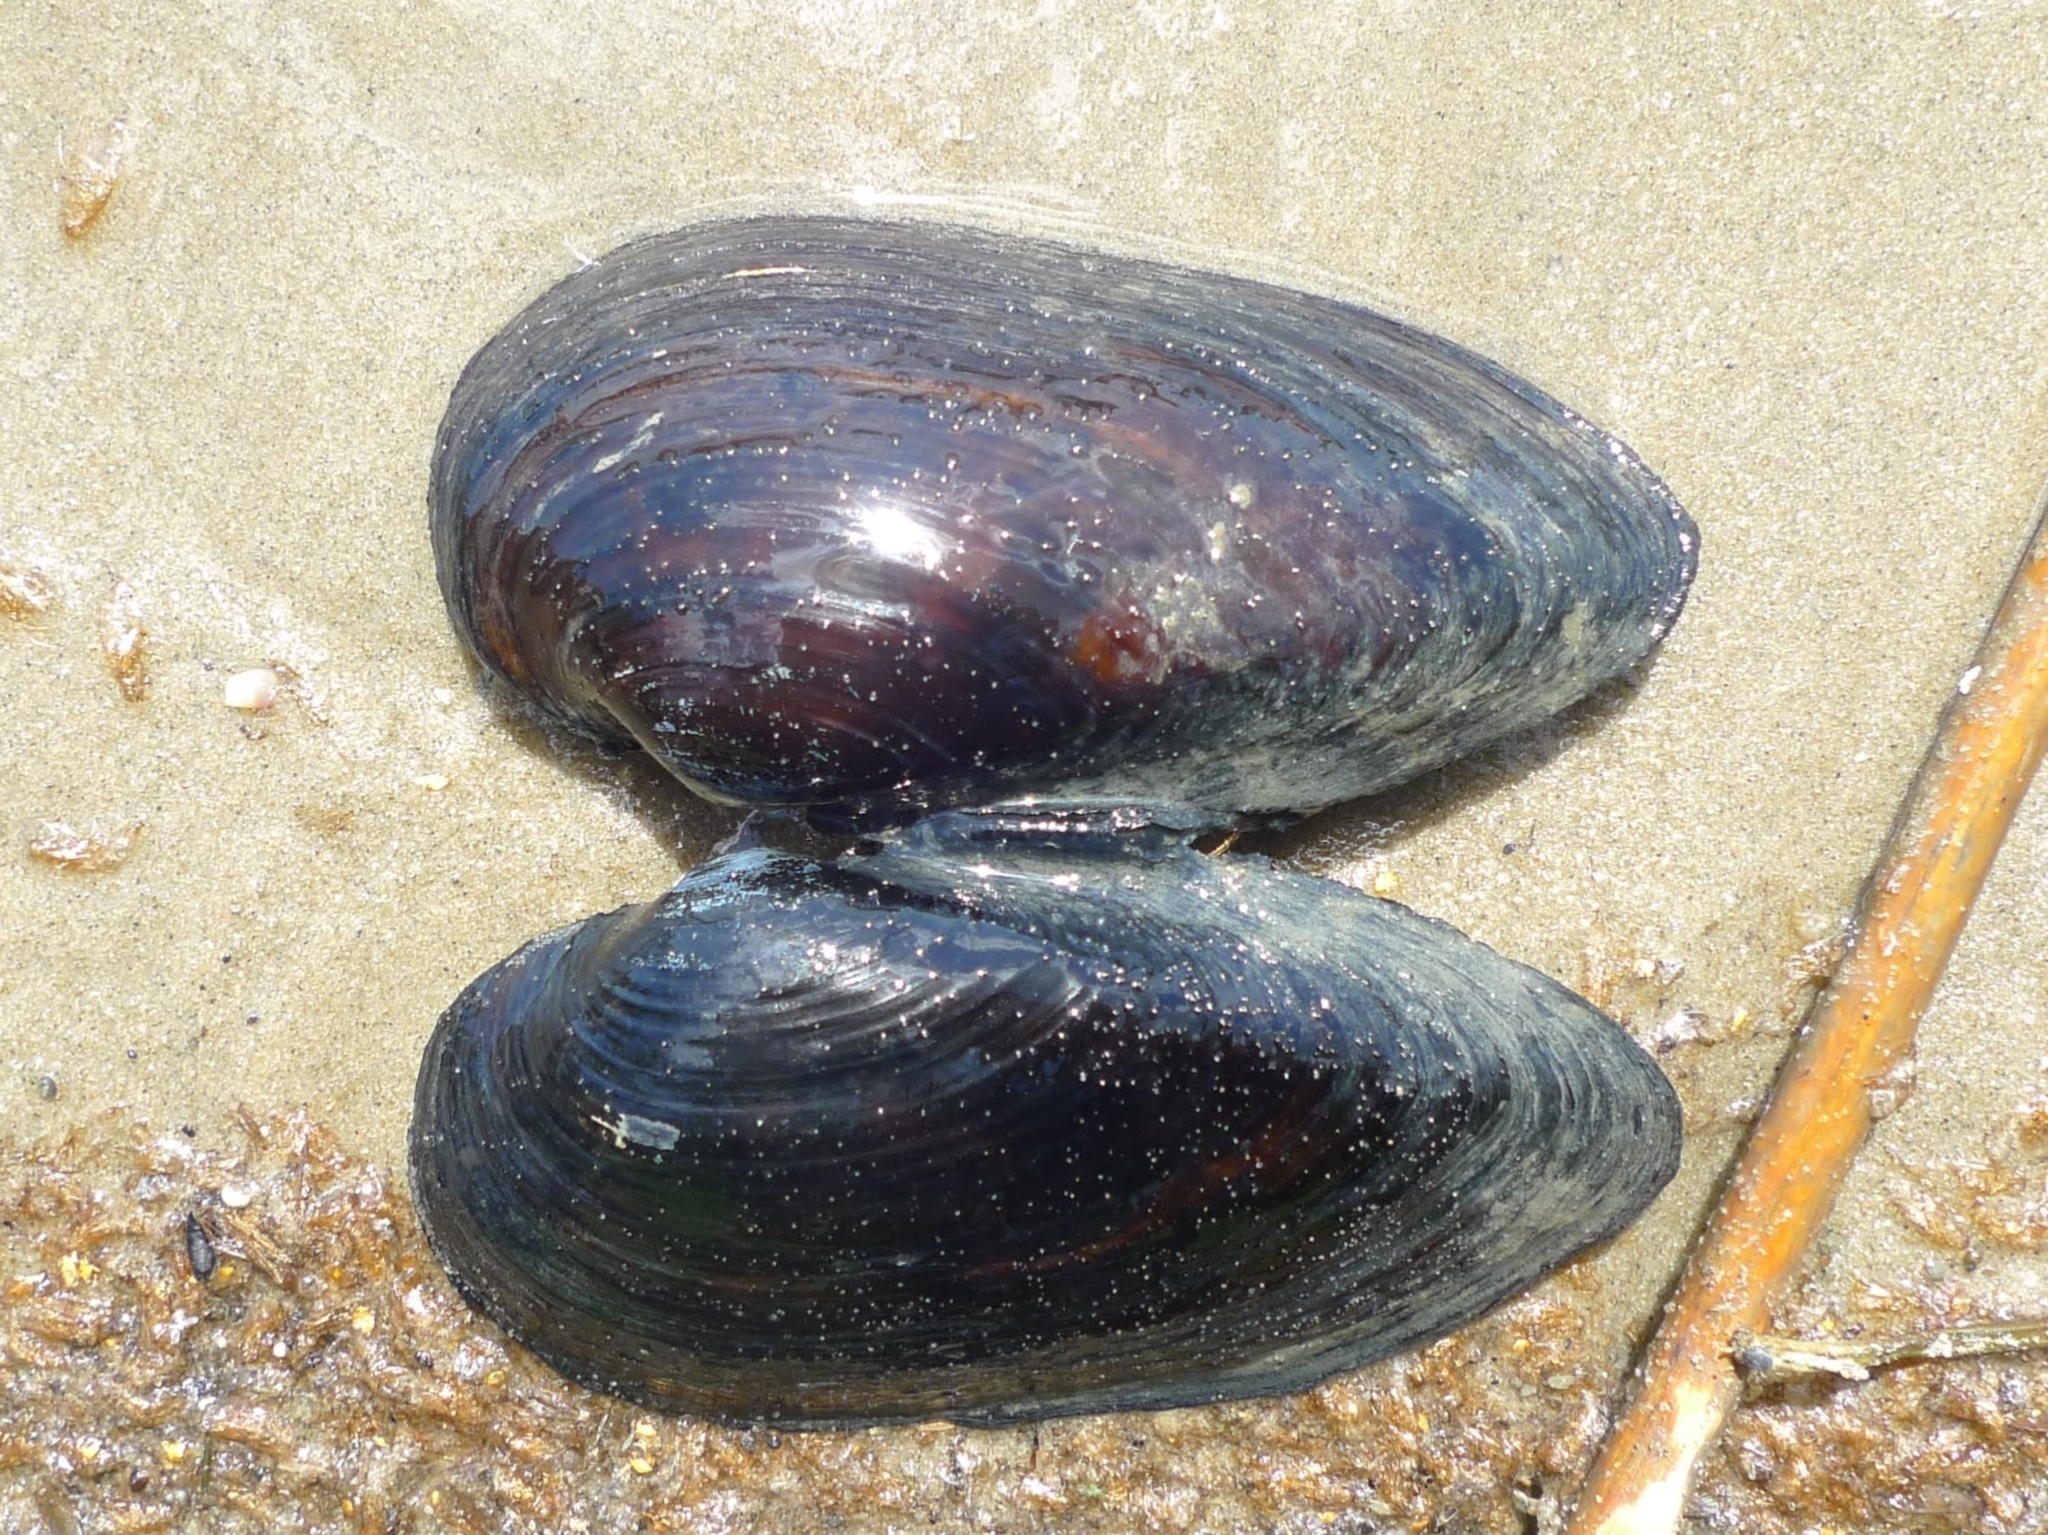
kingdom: Animalia
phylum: Mollusca
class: Bivalvia
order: Unionida
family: Unionidae
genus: Unio
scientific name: Unio tumidus
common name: Swollen river mussel
